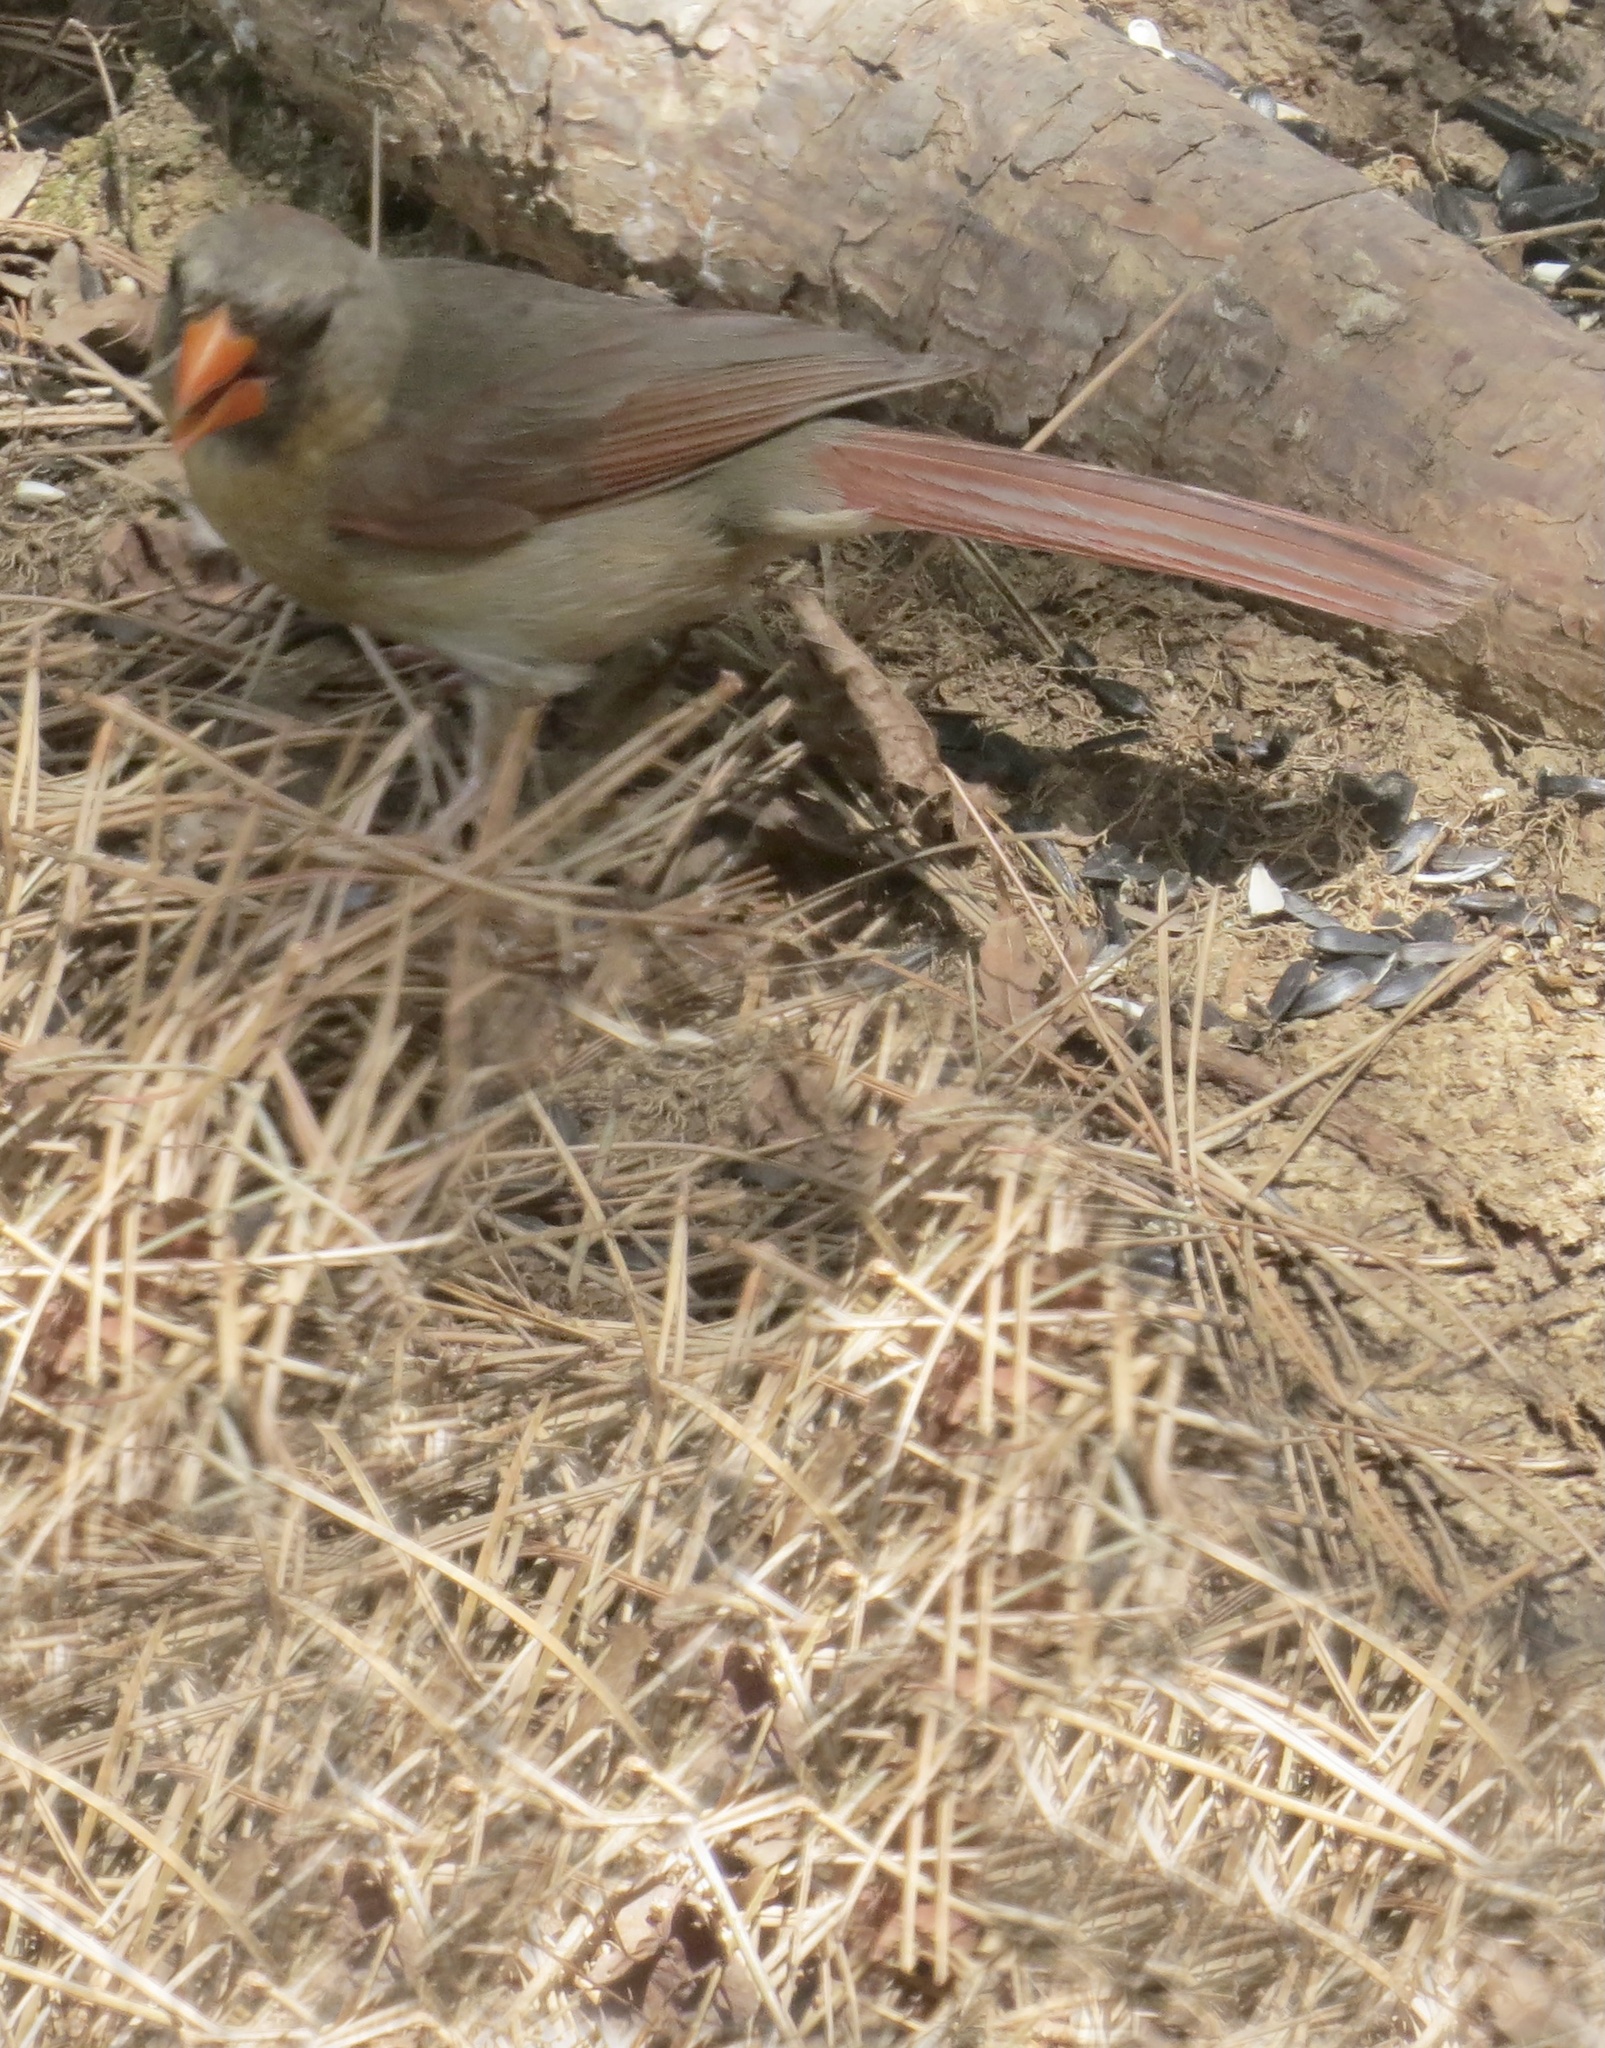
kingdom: Animalia
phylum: Chordata
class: Aves
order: Passeriformes
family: Cardinalidae
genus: Cardinalis
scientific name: Cardinalis cardinalis
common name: Northern cardinal
